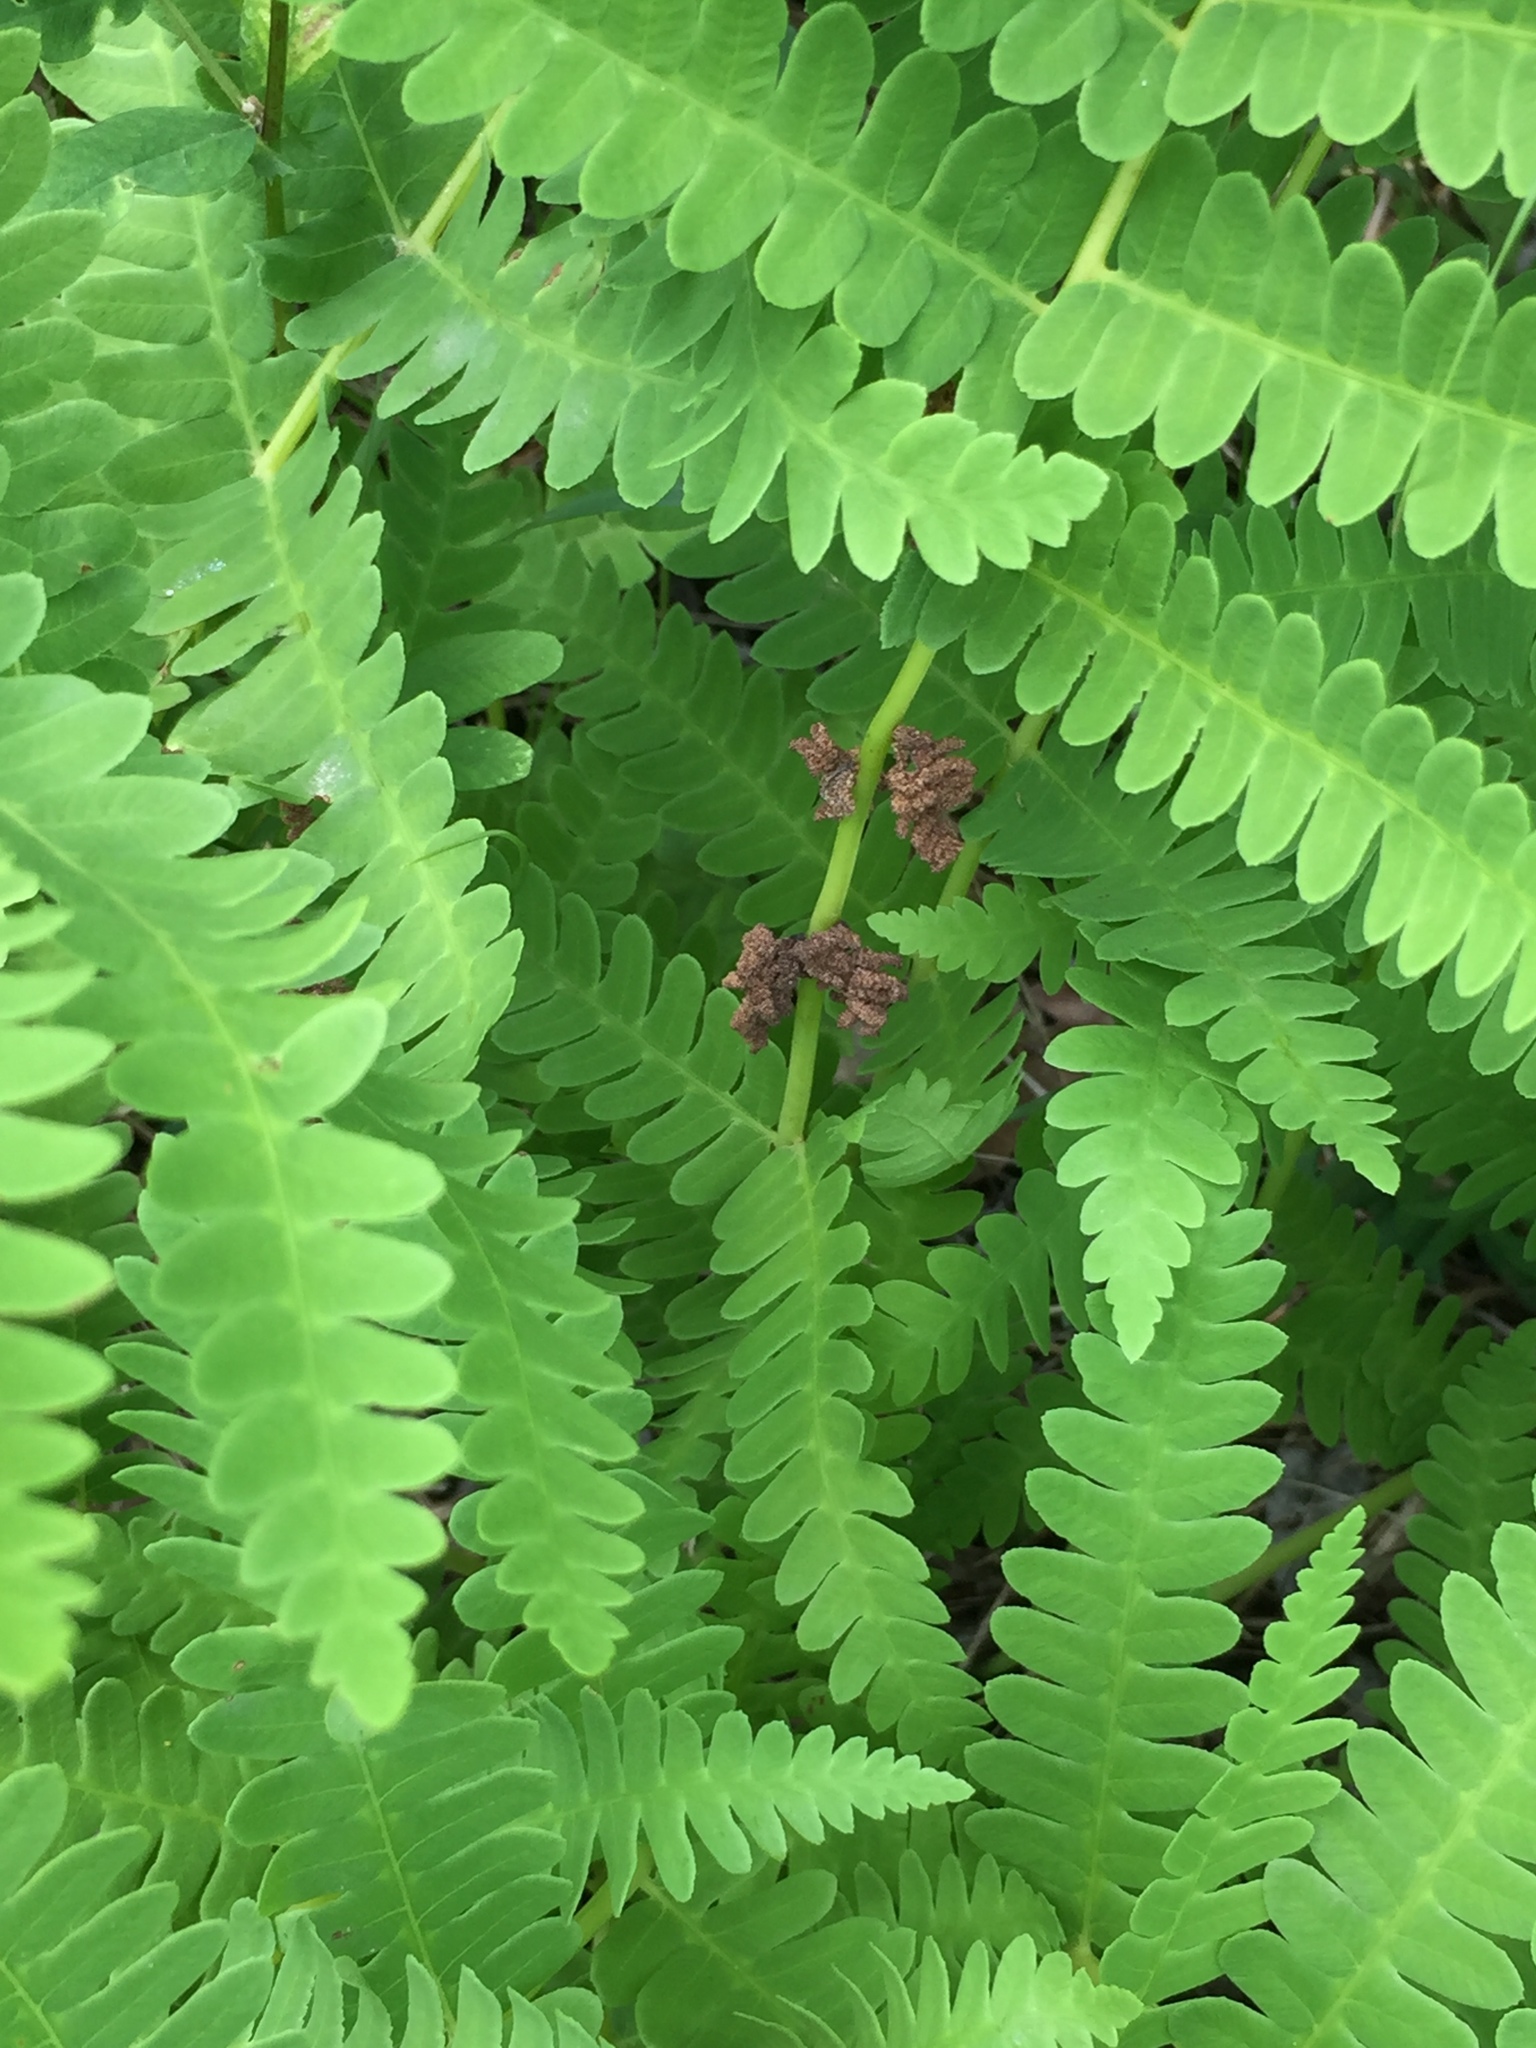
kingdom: Plantae
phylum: Tracheophyta
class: Polypodiopsida
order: Osmundales
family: Osmundaceae
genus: Claytosmunda
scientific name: Claytosmunda claytoniana
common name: Clayton's fern
